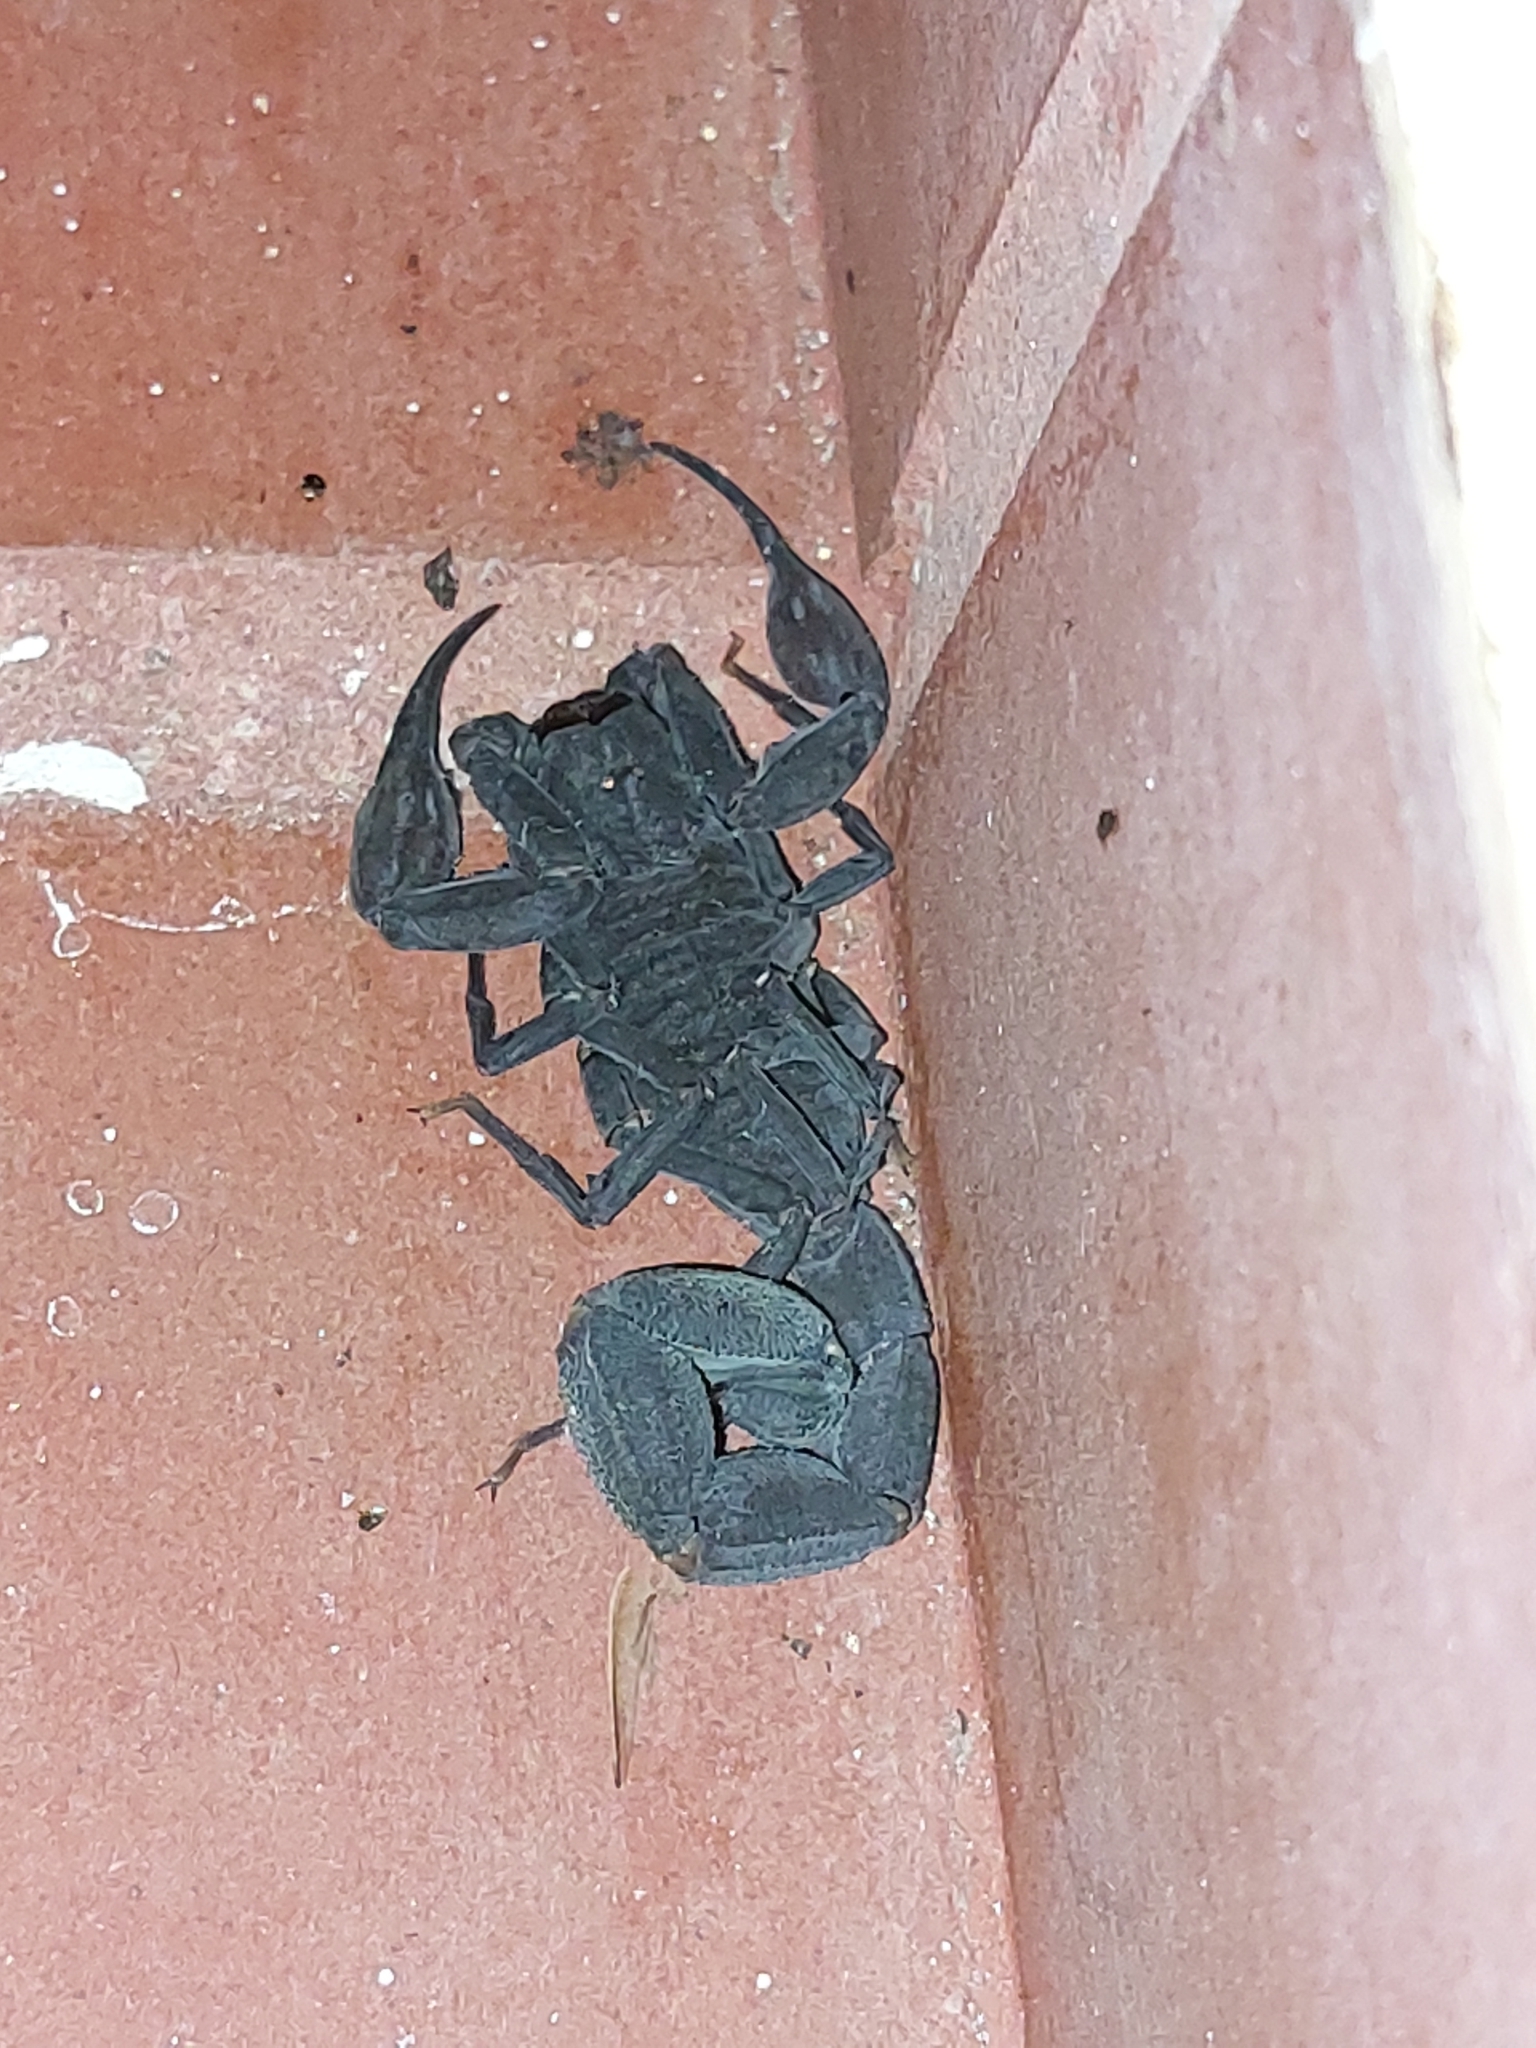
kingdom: Animalia
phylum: Arthropoda
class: Arachnida
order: Scorpiones
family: Buthidae
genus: Tityus
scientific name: Tityus jaimei
